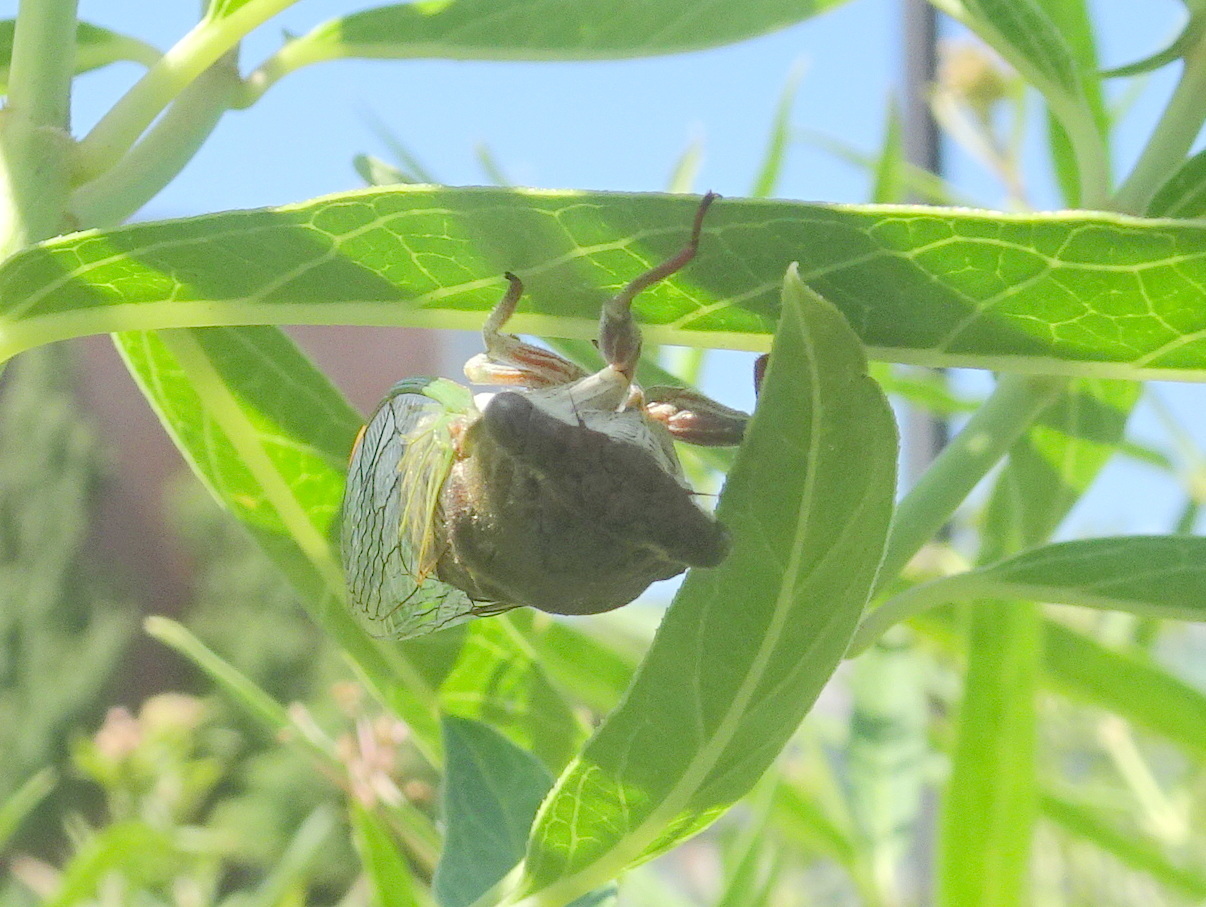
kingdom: Animalia
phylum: Arthropoda
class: Insecta
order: Hemiptera
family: Cicadidae
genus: Neotibicen
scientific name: Neotibicen aurifer
